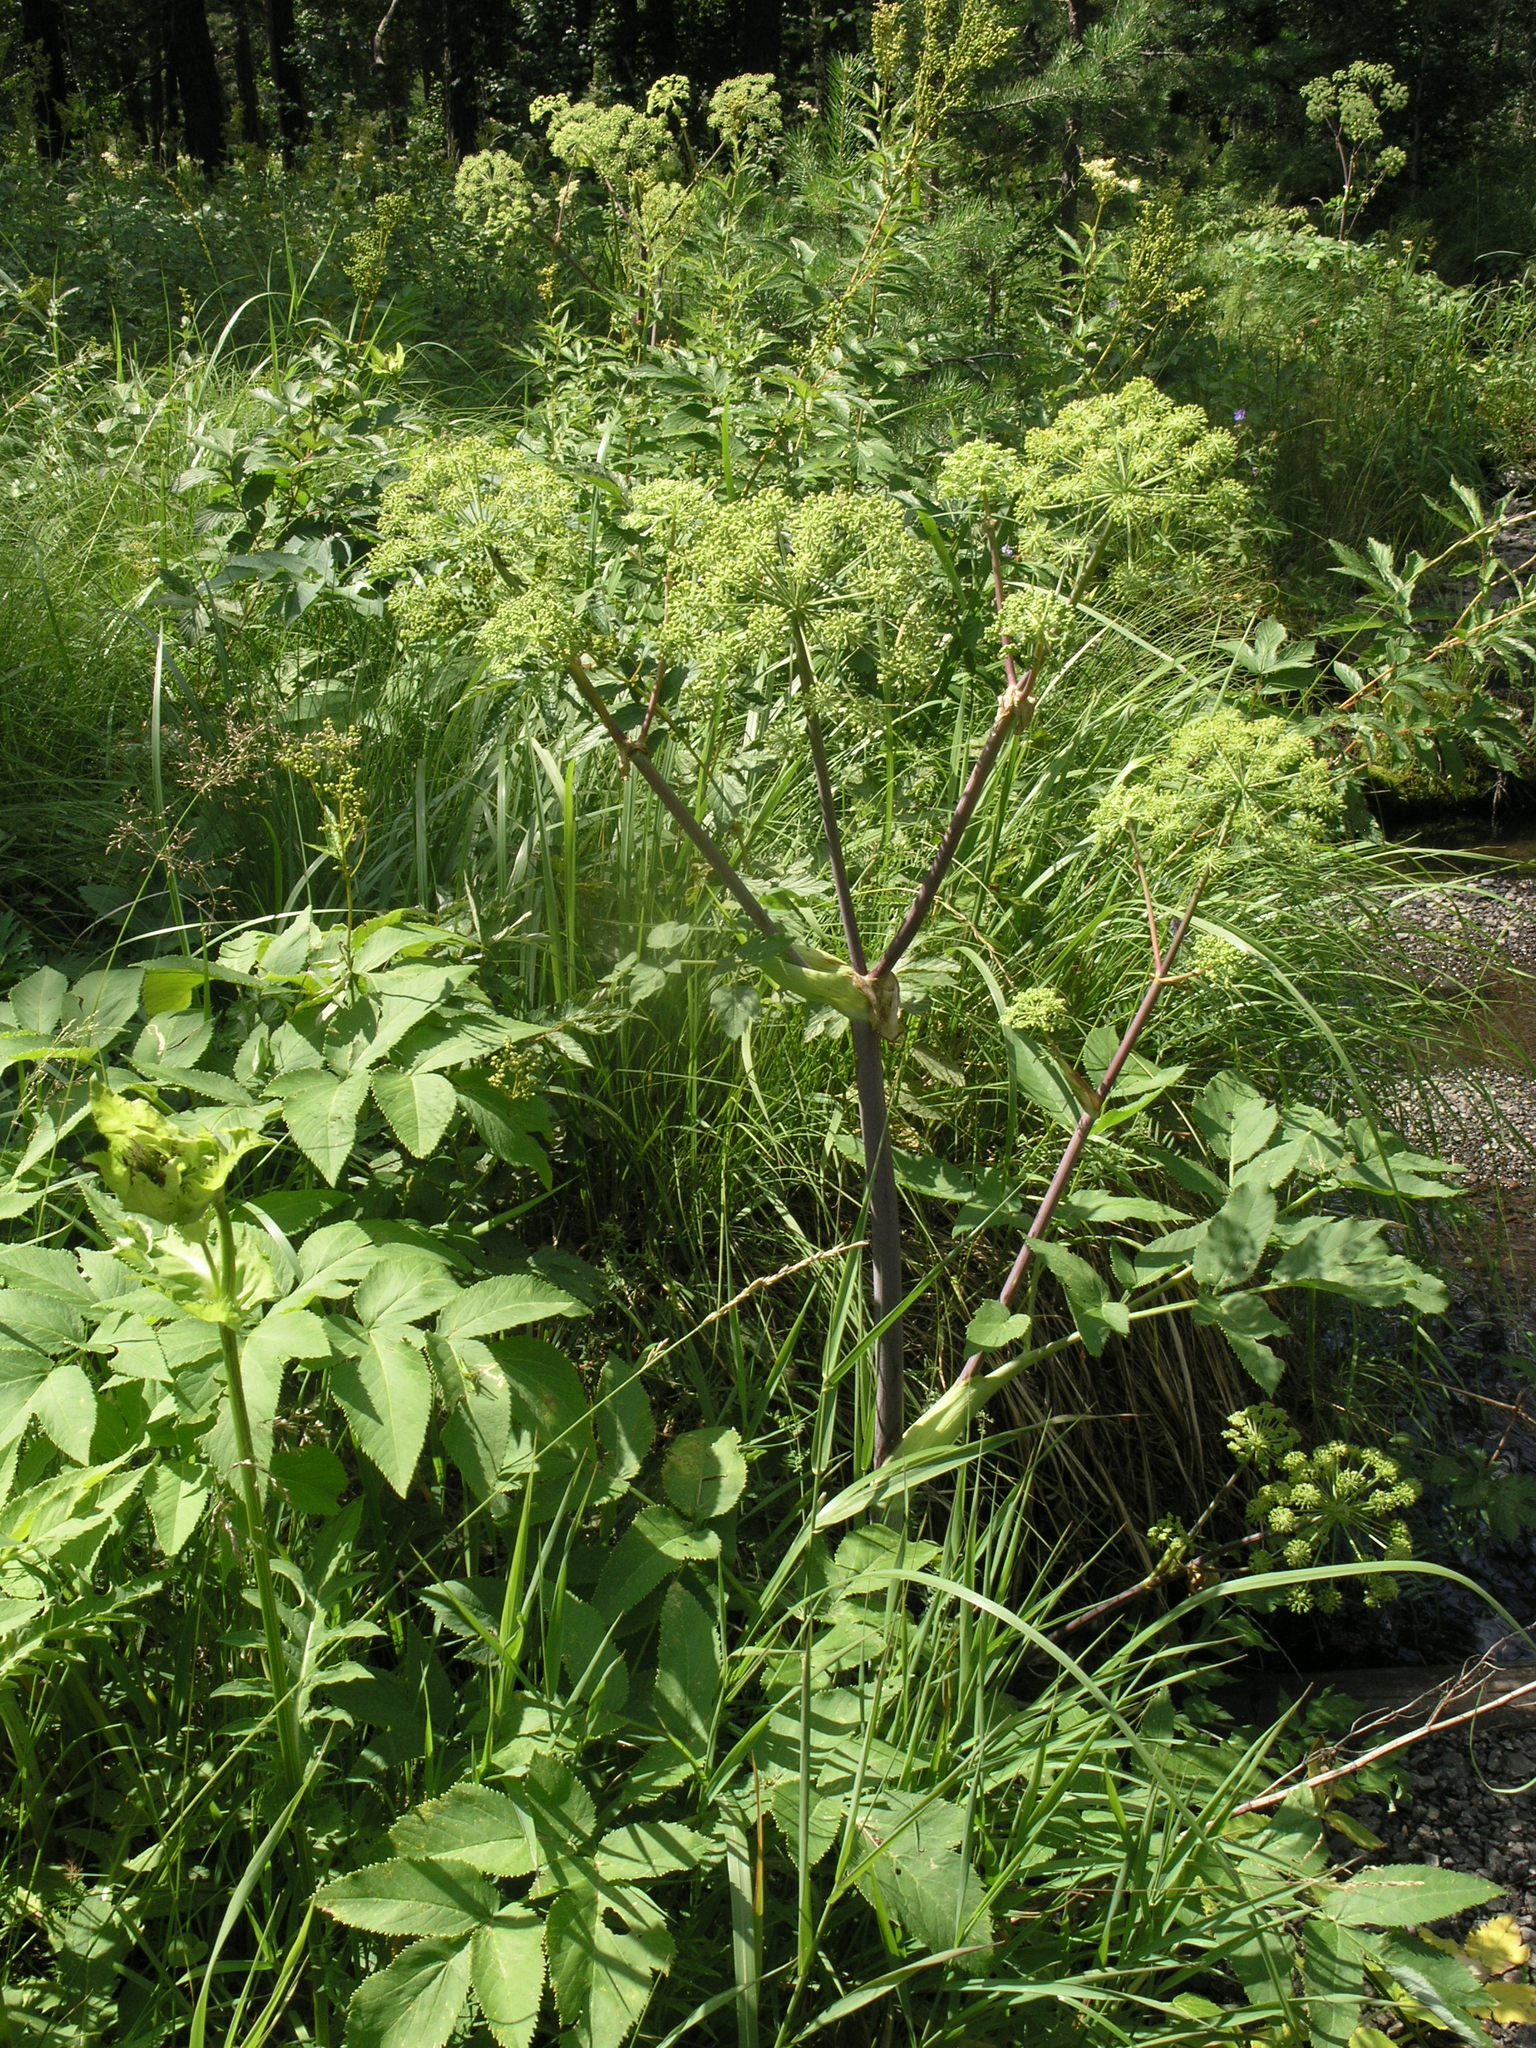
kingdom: Plantae
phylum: Tracheophyta
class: Magnoliopsida
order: Apiales
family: Apiaceae
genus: Angelica
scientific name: Angelica archangelica
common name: Garden angelica
